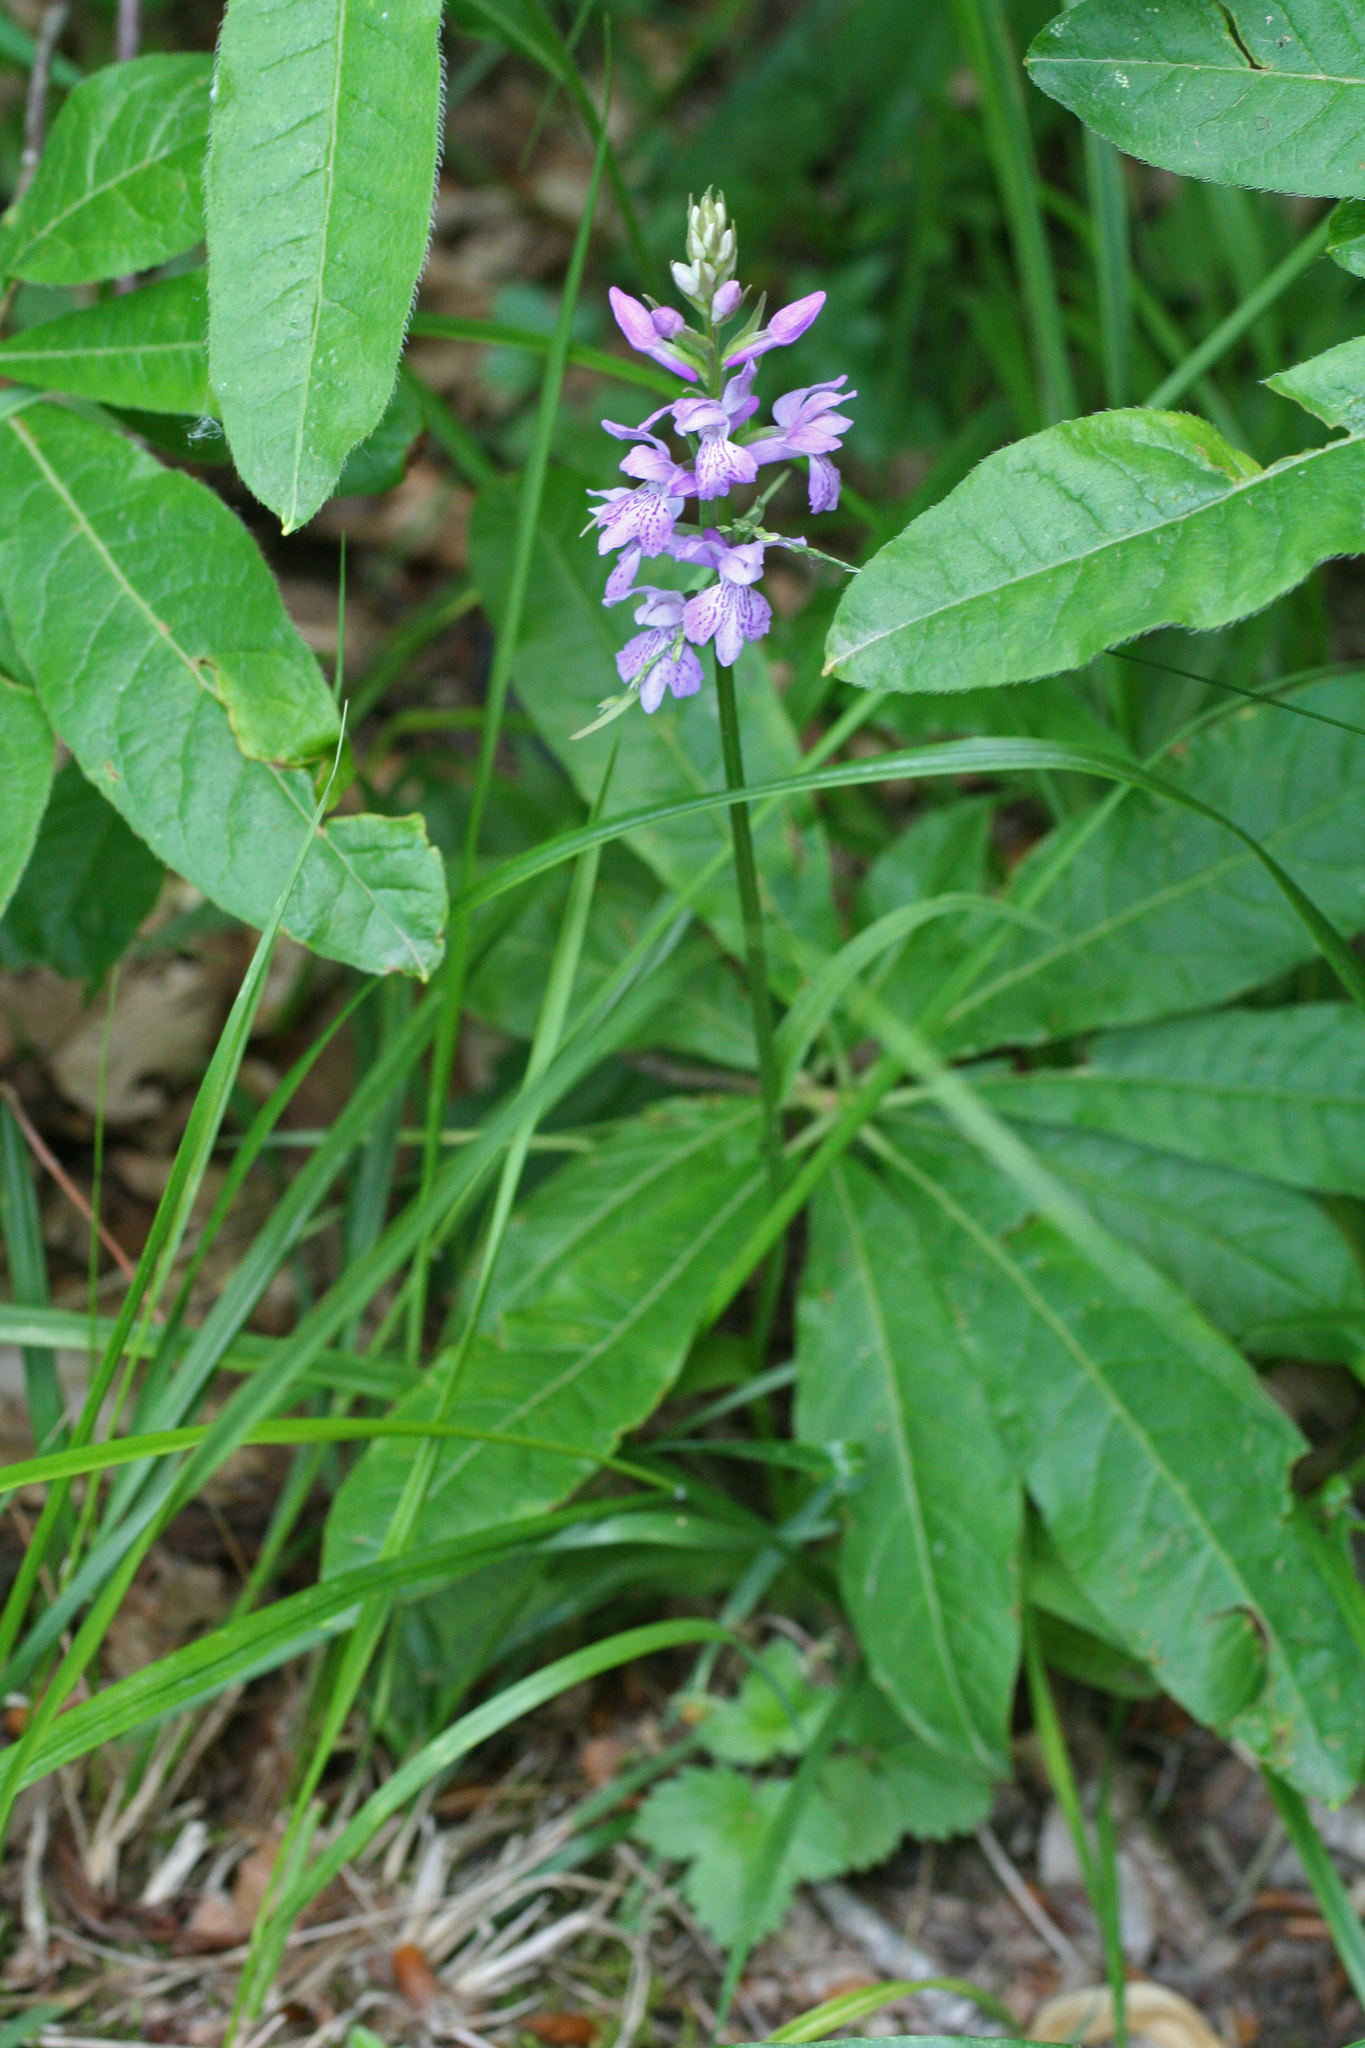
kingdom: Plantae
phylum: Tracheophyta
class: Liliopsida
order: Asparagales
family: Orchidaceae
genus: Dactylorhiza
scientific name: Dactylorhiza maculata
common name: Heath spotted-orchid
